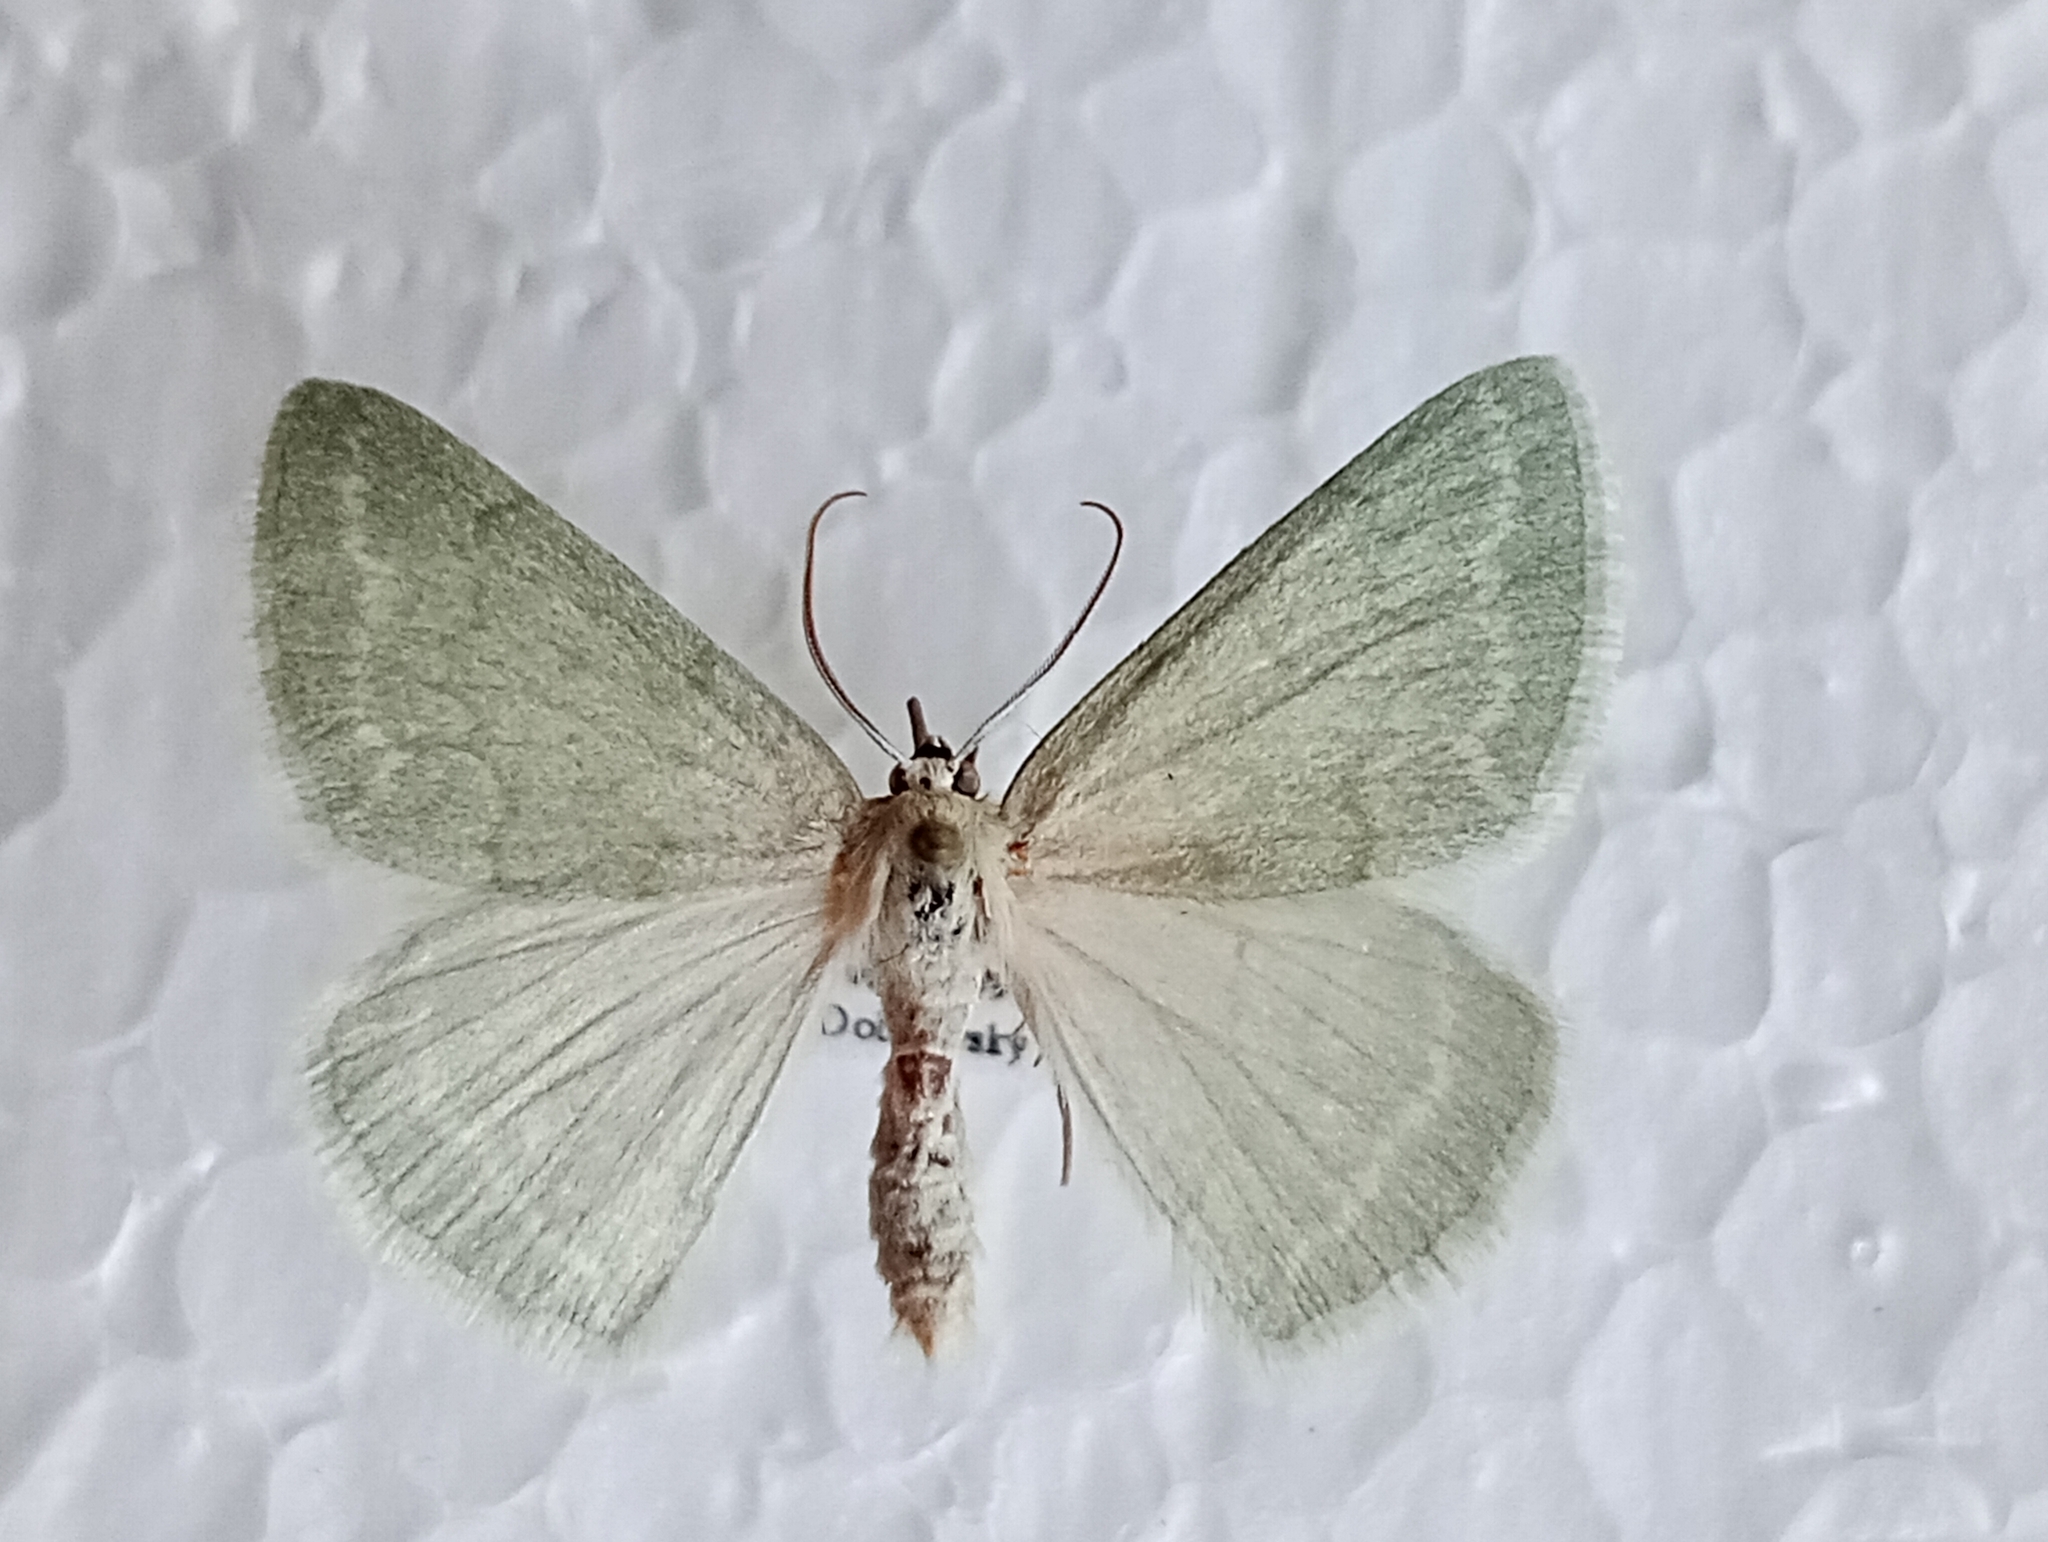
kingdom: Animalia
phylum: Arthropoda
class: Insecta
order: Lepidoptera
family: Geometridae
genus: Pseudoterpna
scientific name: Pseudoterpna pruinata
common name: Grass emerald
